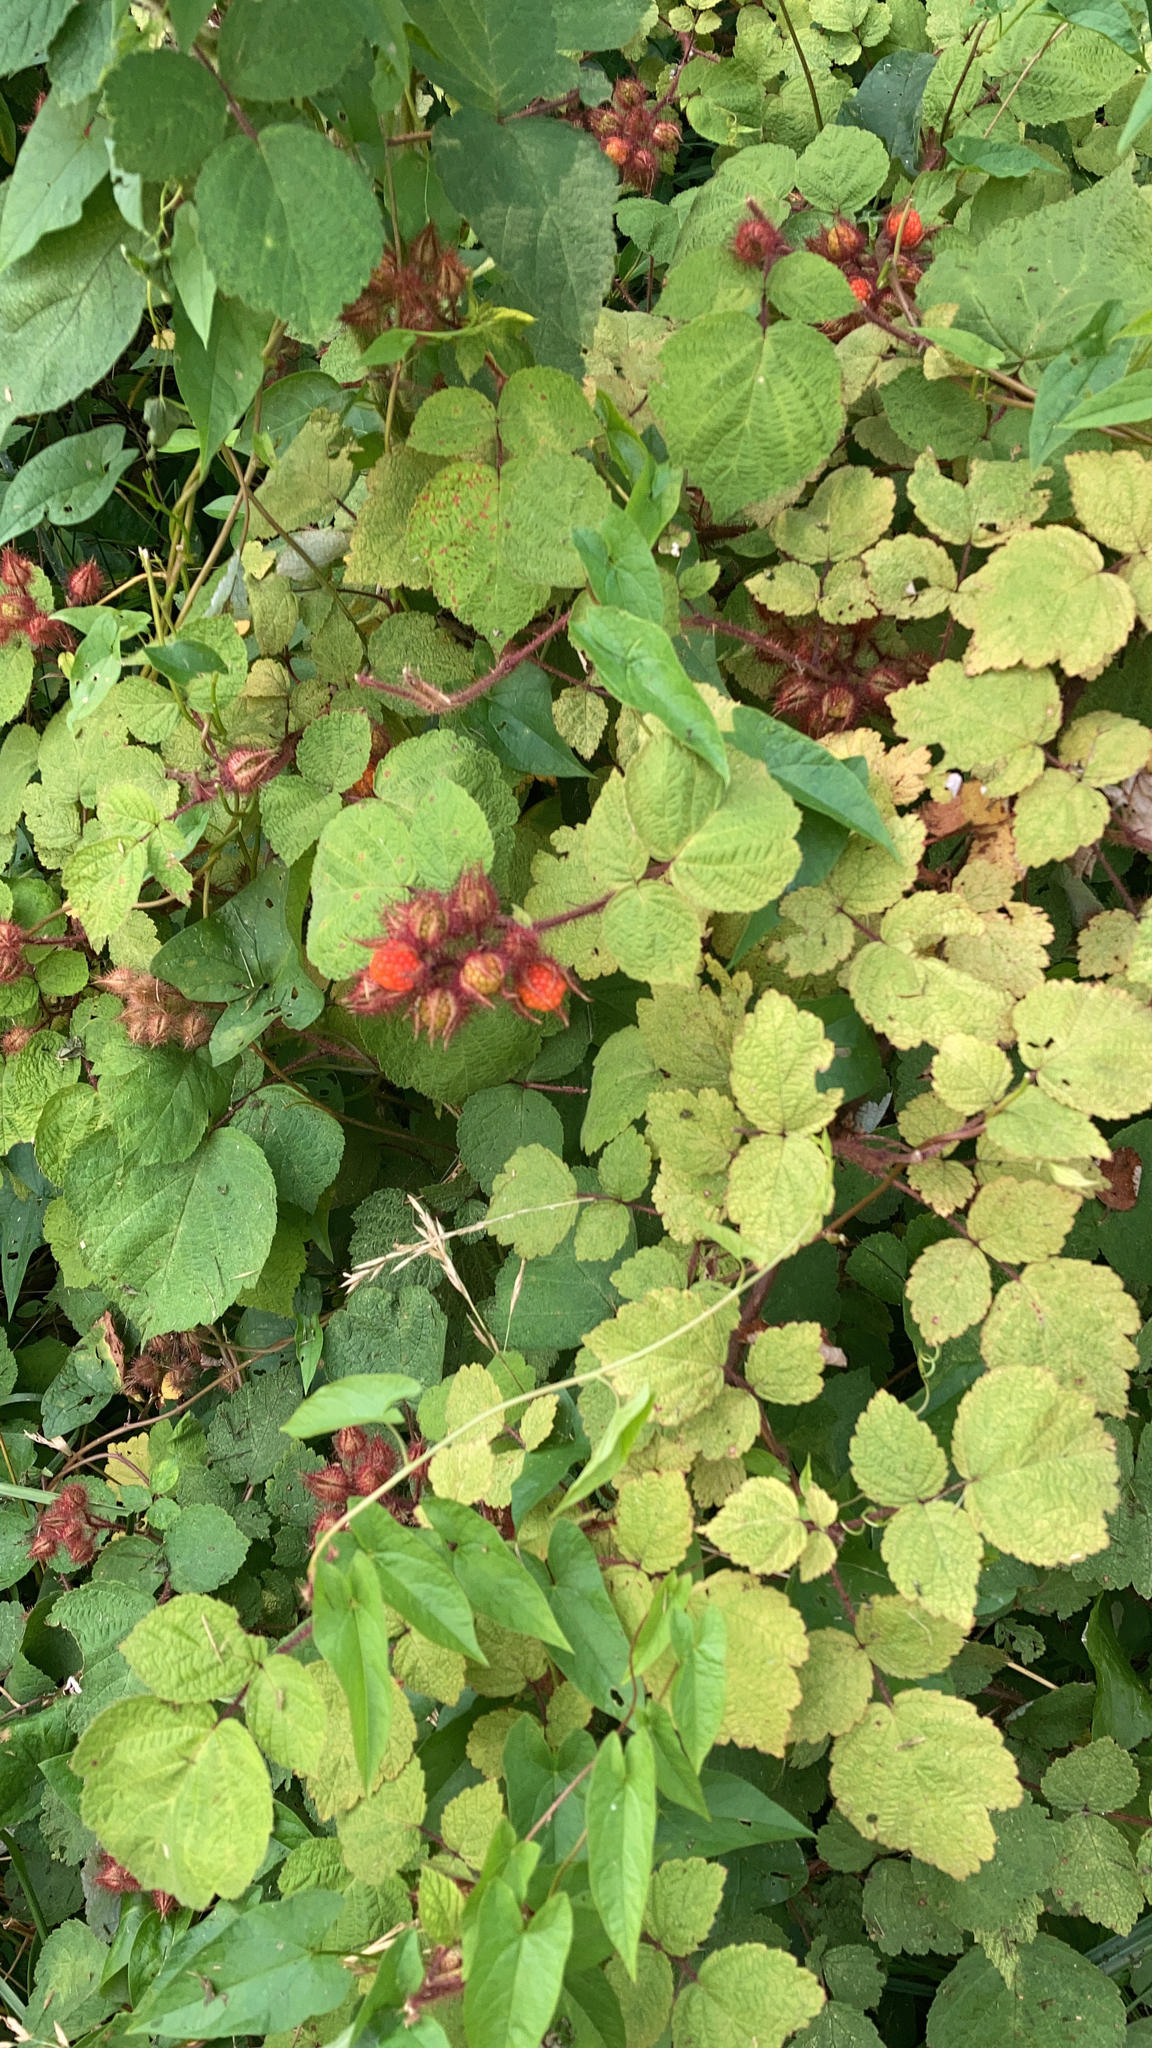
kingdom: Plantae
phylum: Tracheophyta
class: Magnoliopsida
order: Rosales
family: Rosaceae
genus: Rubus
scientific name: Rubus phoenicolasius
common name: Japanese wineberry
